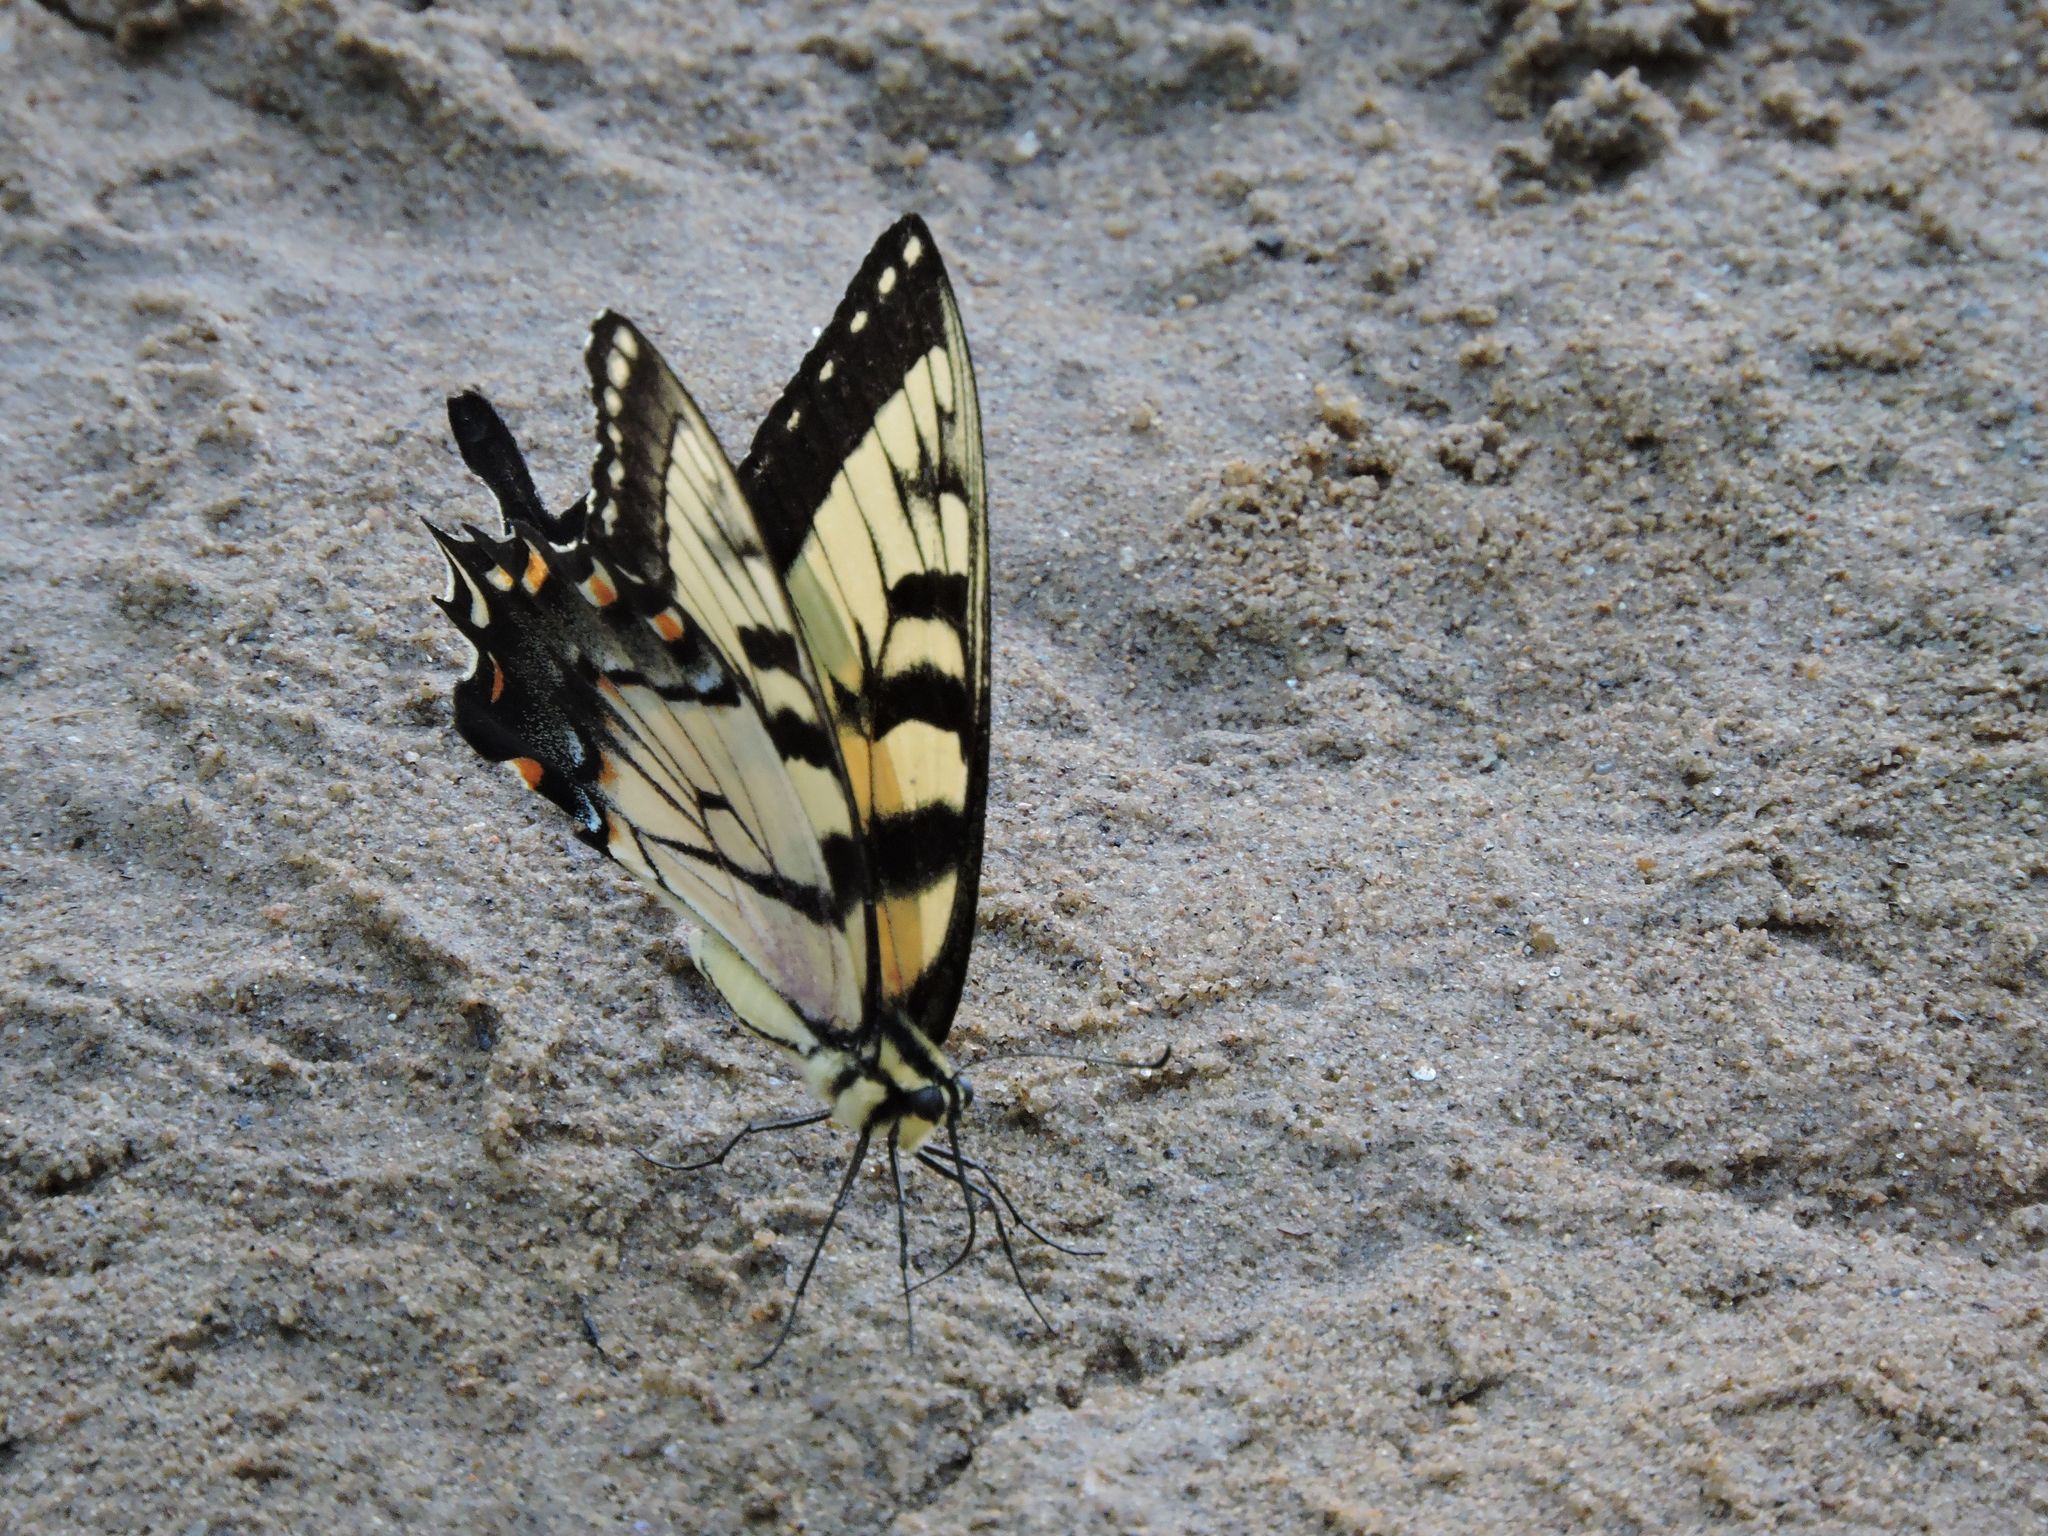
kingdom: Animalia
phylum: Arthropoda
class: Insecta
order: Lepidoptera
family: Papilionidae
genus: Papilio
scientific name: Papilio glaucus
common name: Tiger swallowtail
